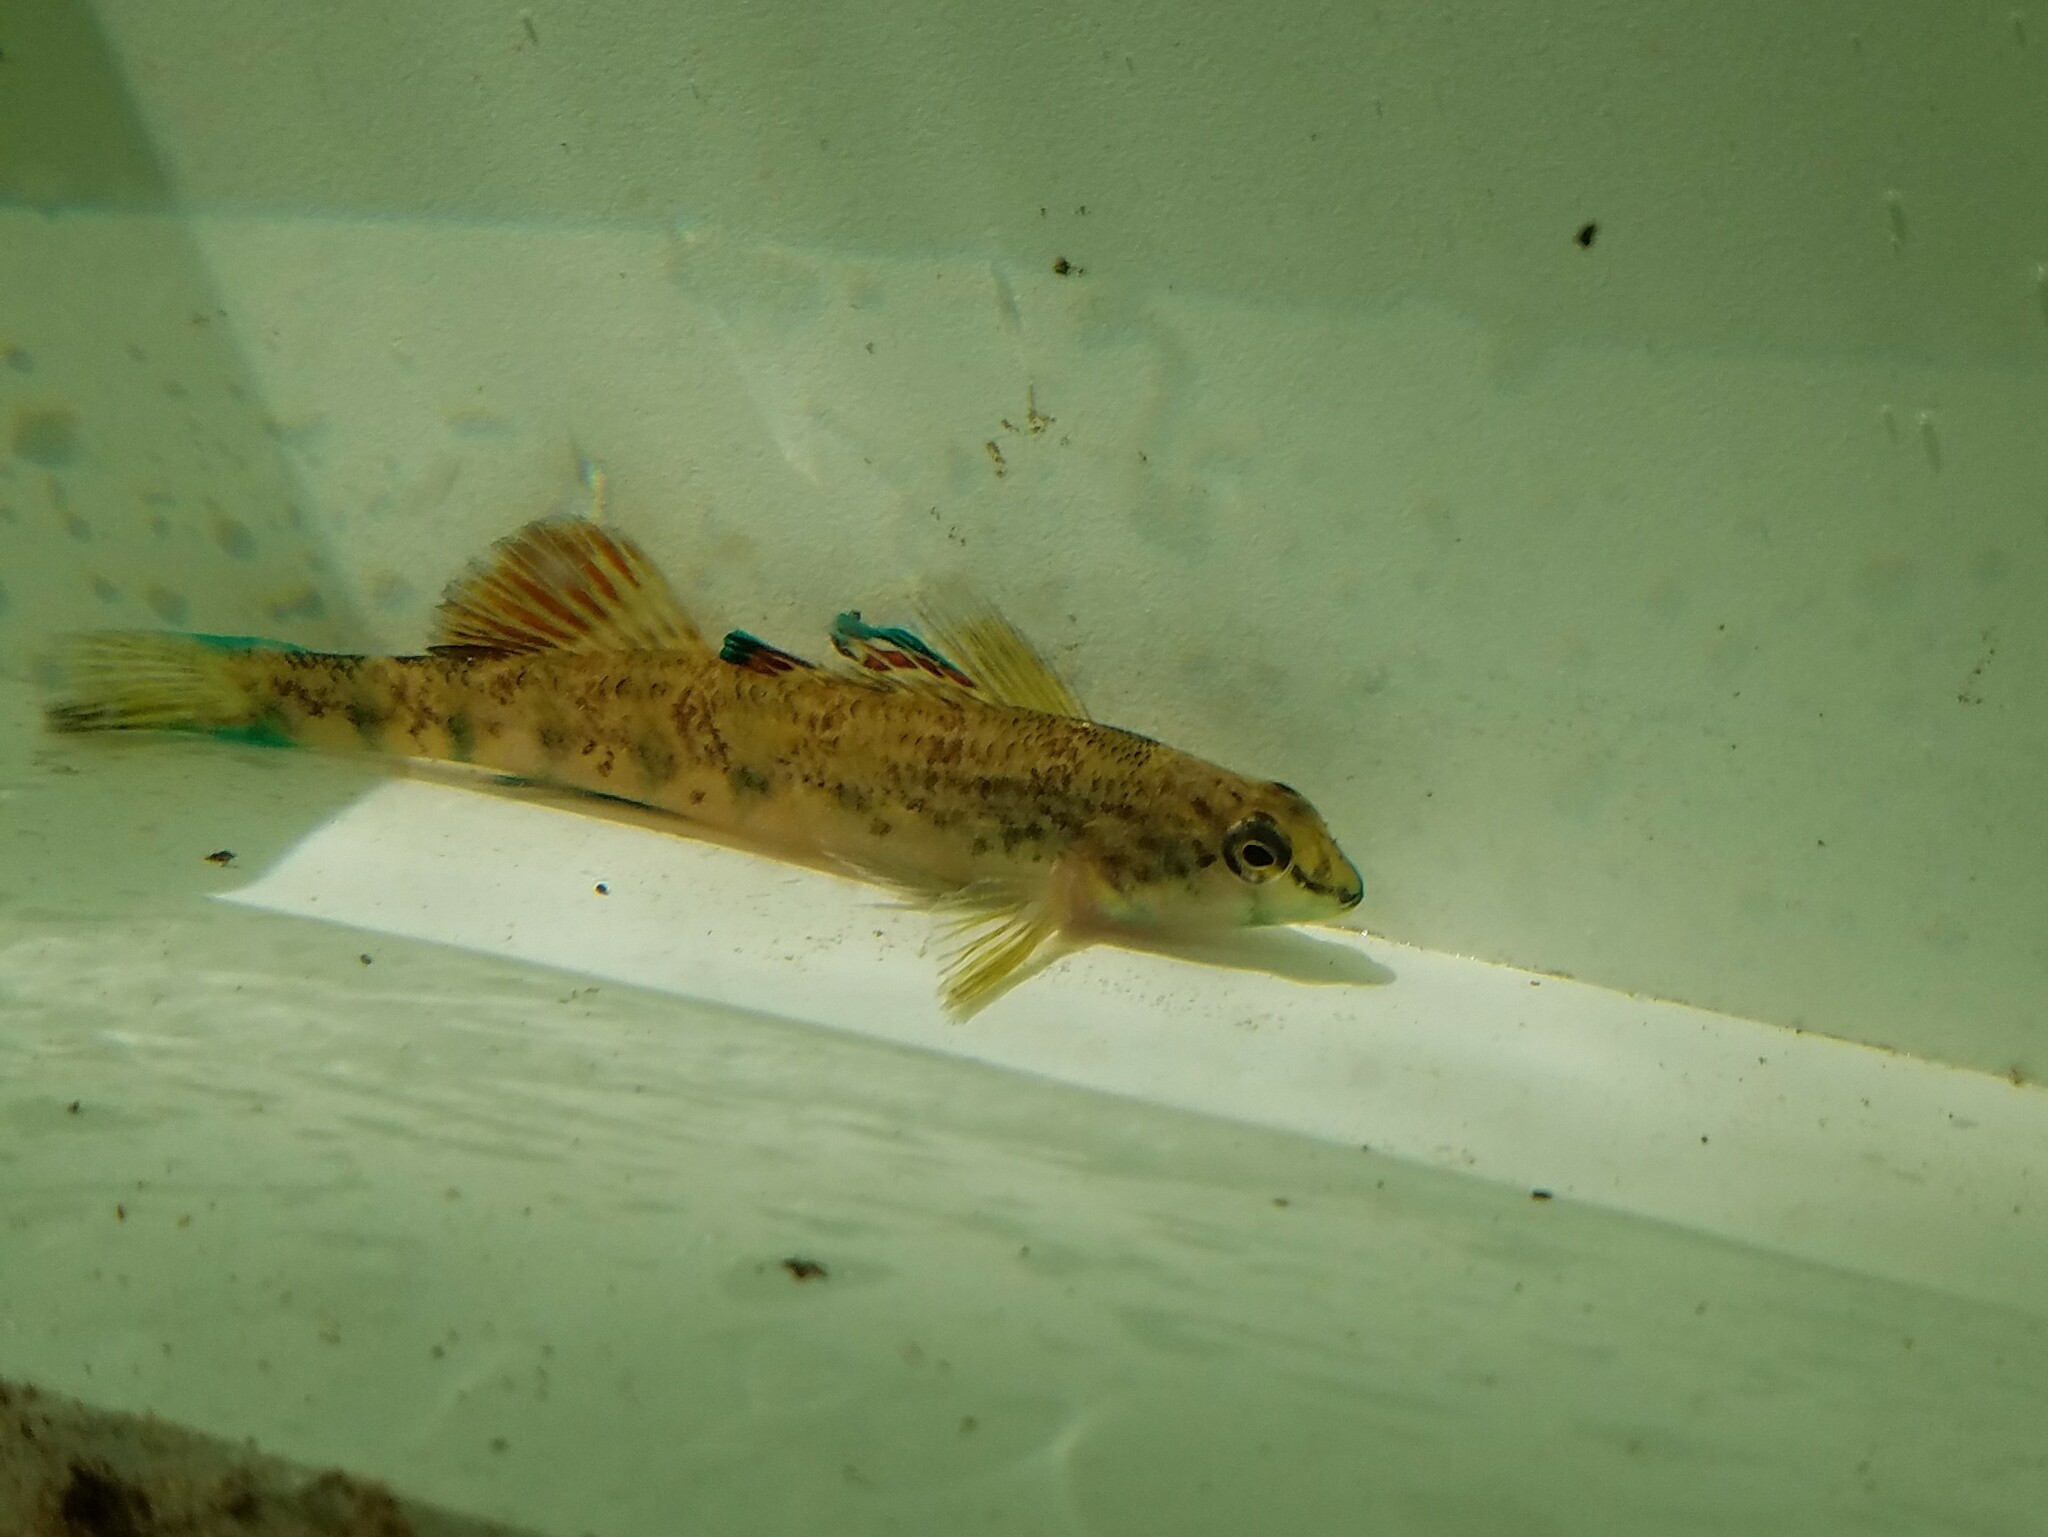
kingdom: Animalia
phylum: Chordata
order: Perciformes
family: Percidae
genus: Etheostoma
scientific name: Etheostoma coosae
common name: Coosa darter
